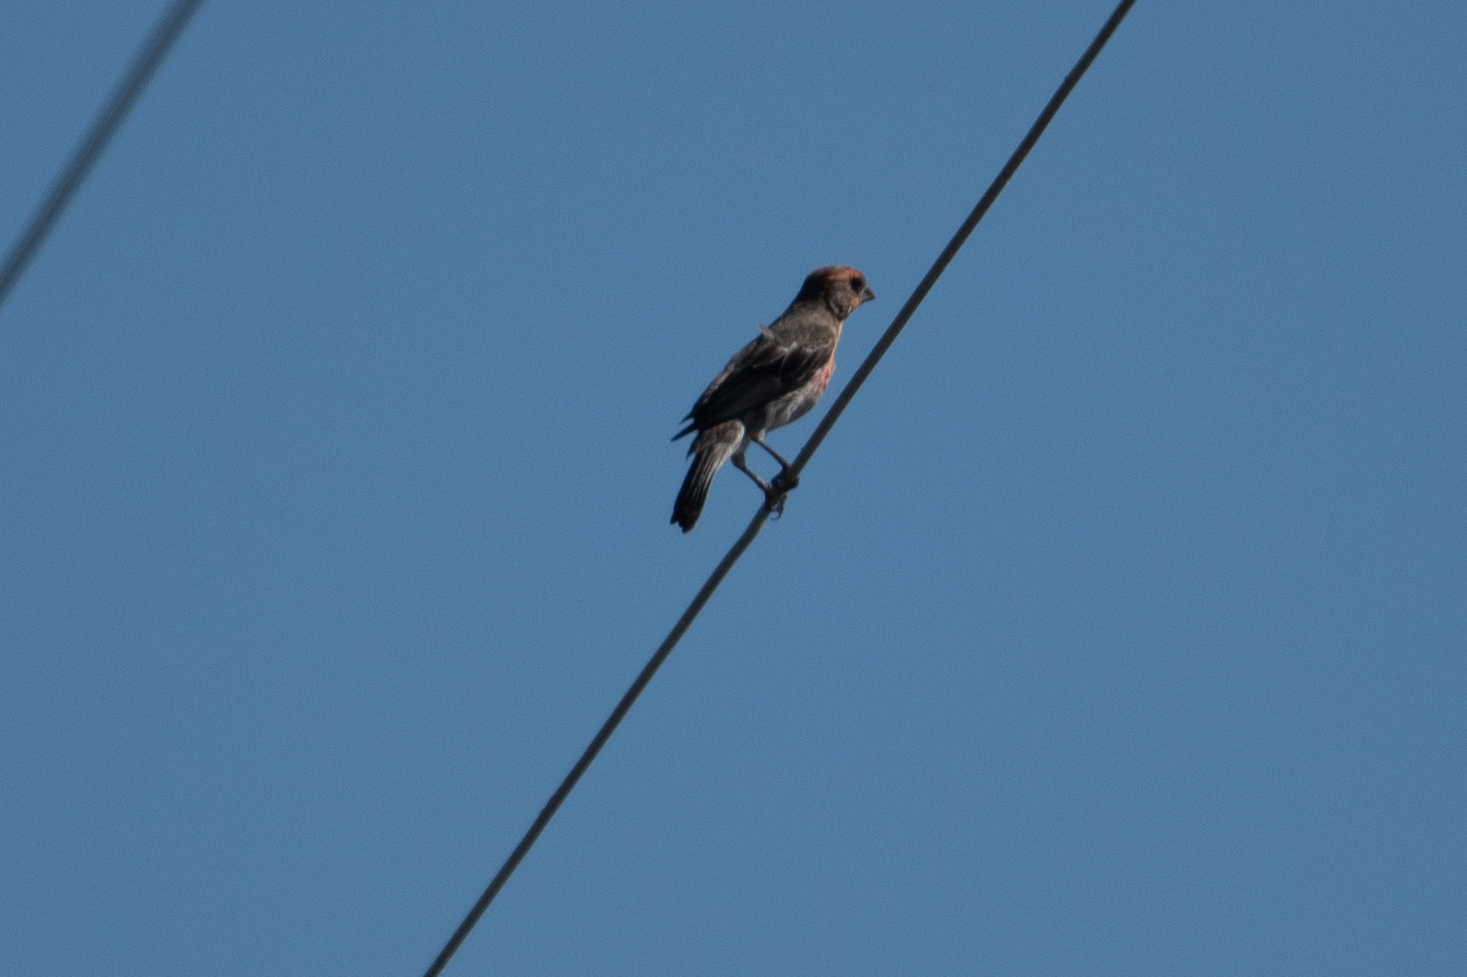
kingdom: Animalia
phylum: Chordata
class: Aves
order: Passeriformes
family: Fringillidae
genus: Haemorhous
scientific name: Haemorhous mexicanus
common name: House finch
